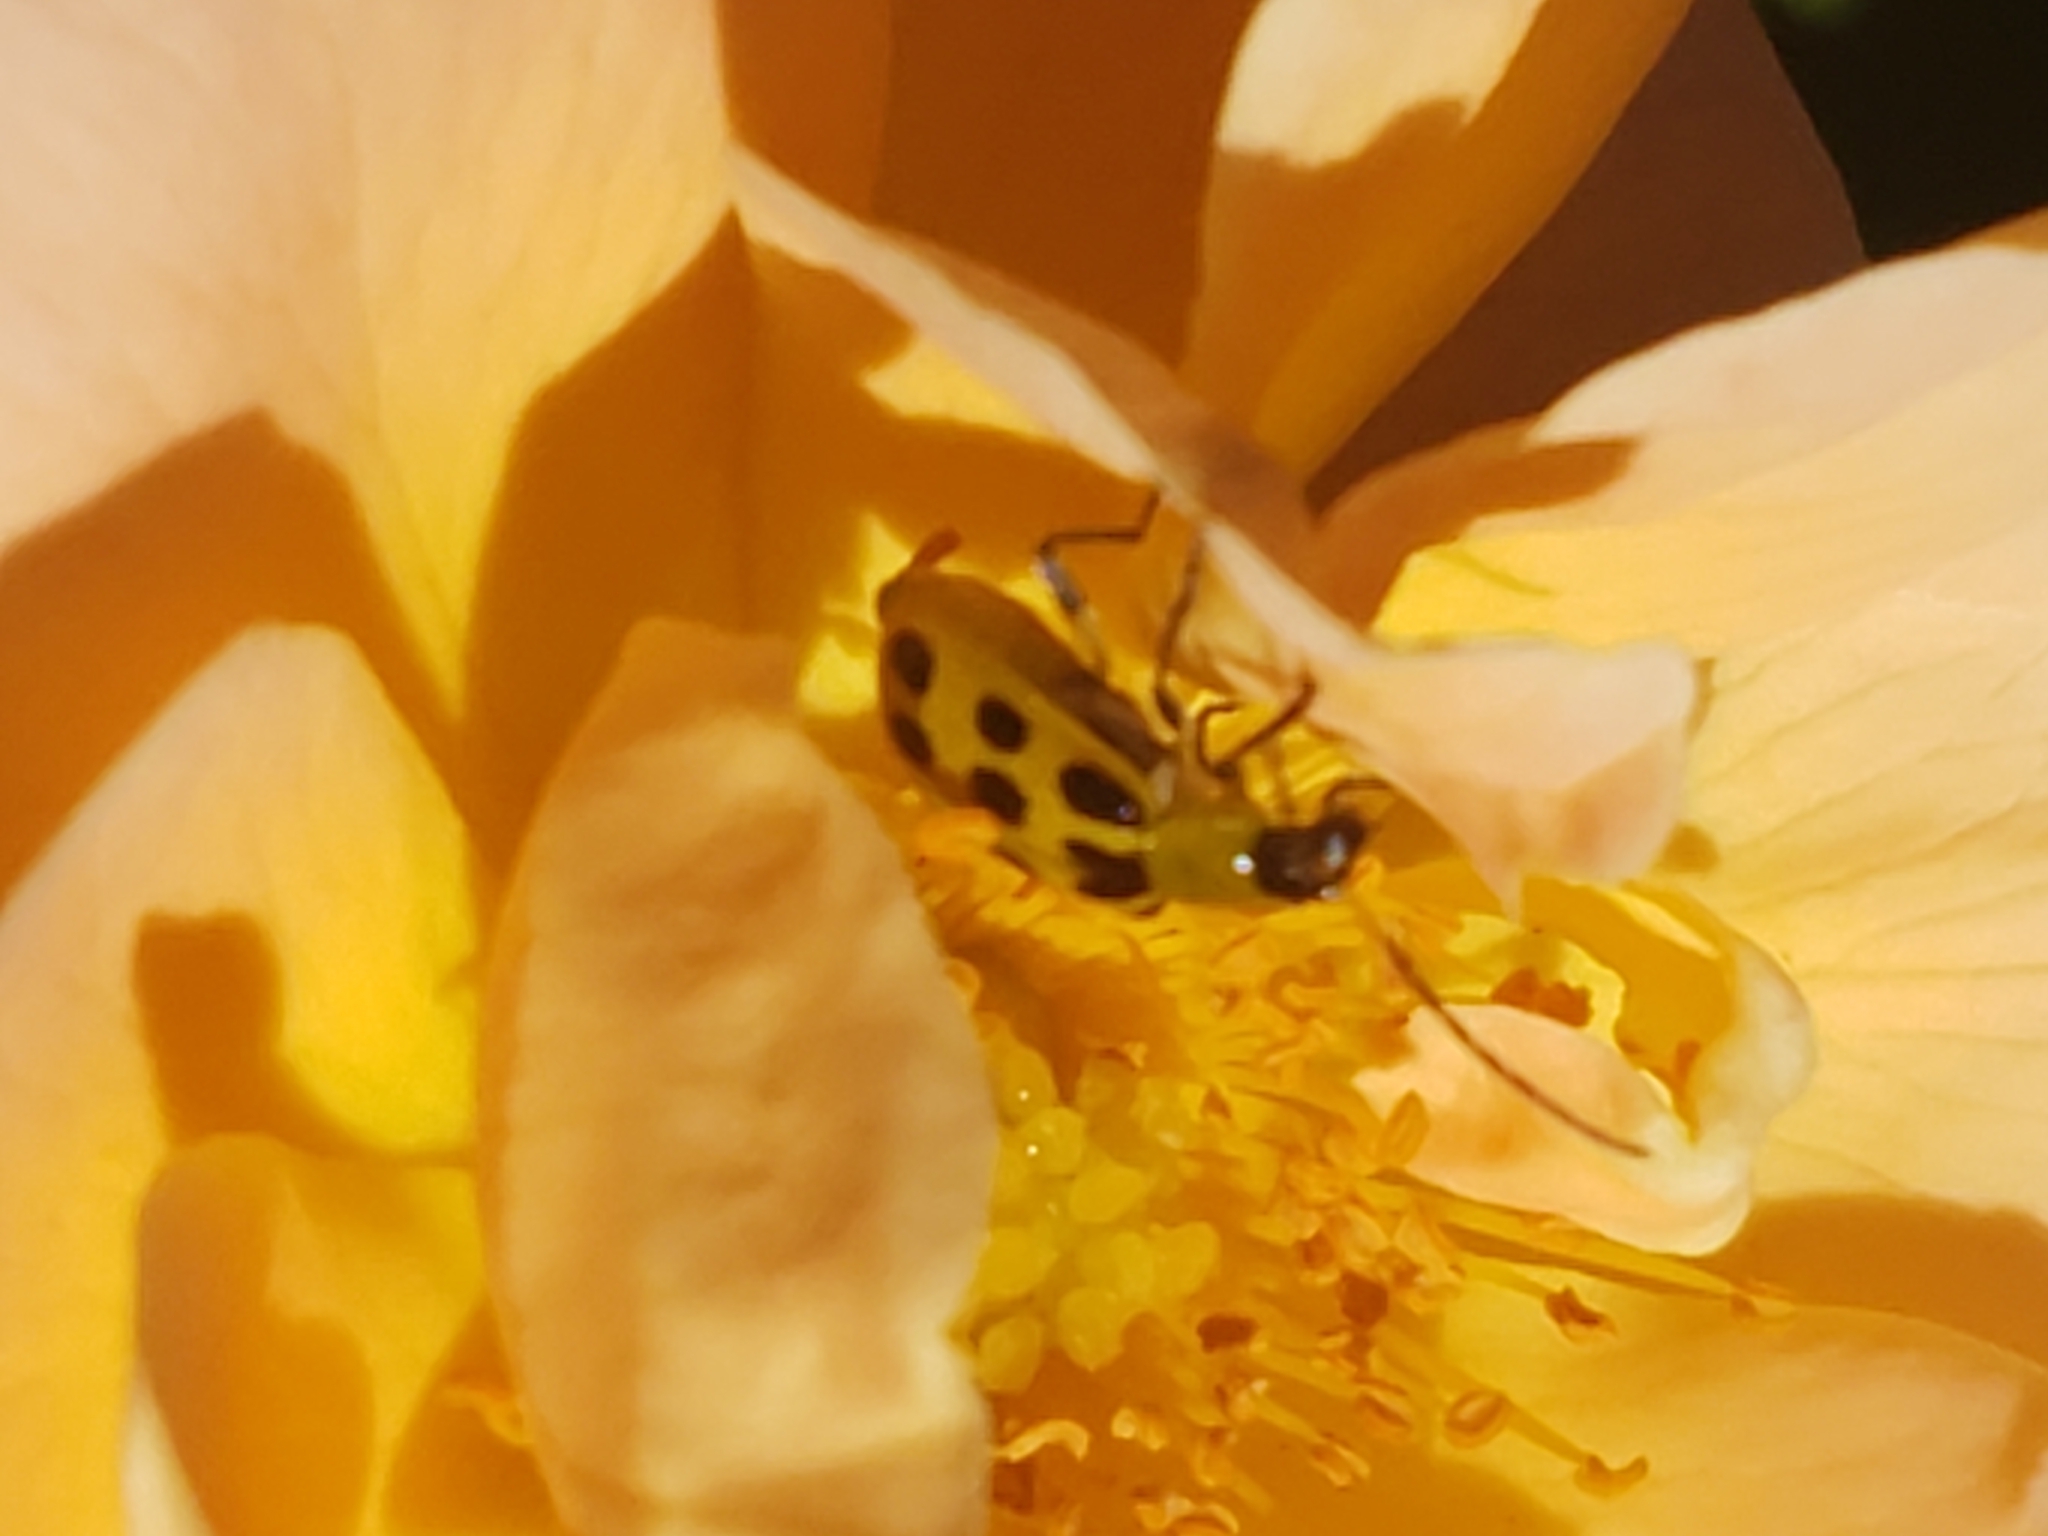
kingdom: Animalia
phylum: Arthropoda
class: Insecta
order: Coleoptera
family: Chrysomelidae
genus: Diabrotica
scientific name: Diabrotica undecimpunctata
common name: Spotted cucumber beetle
